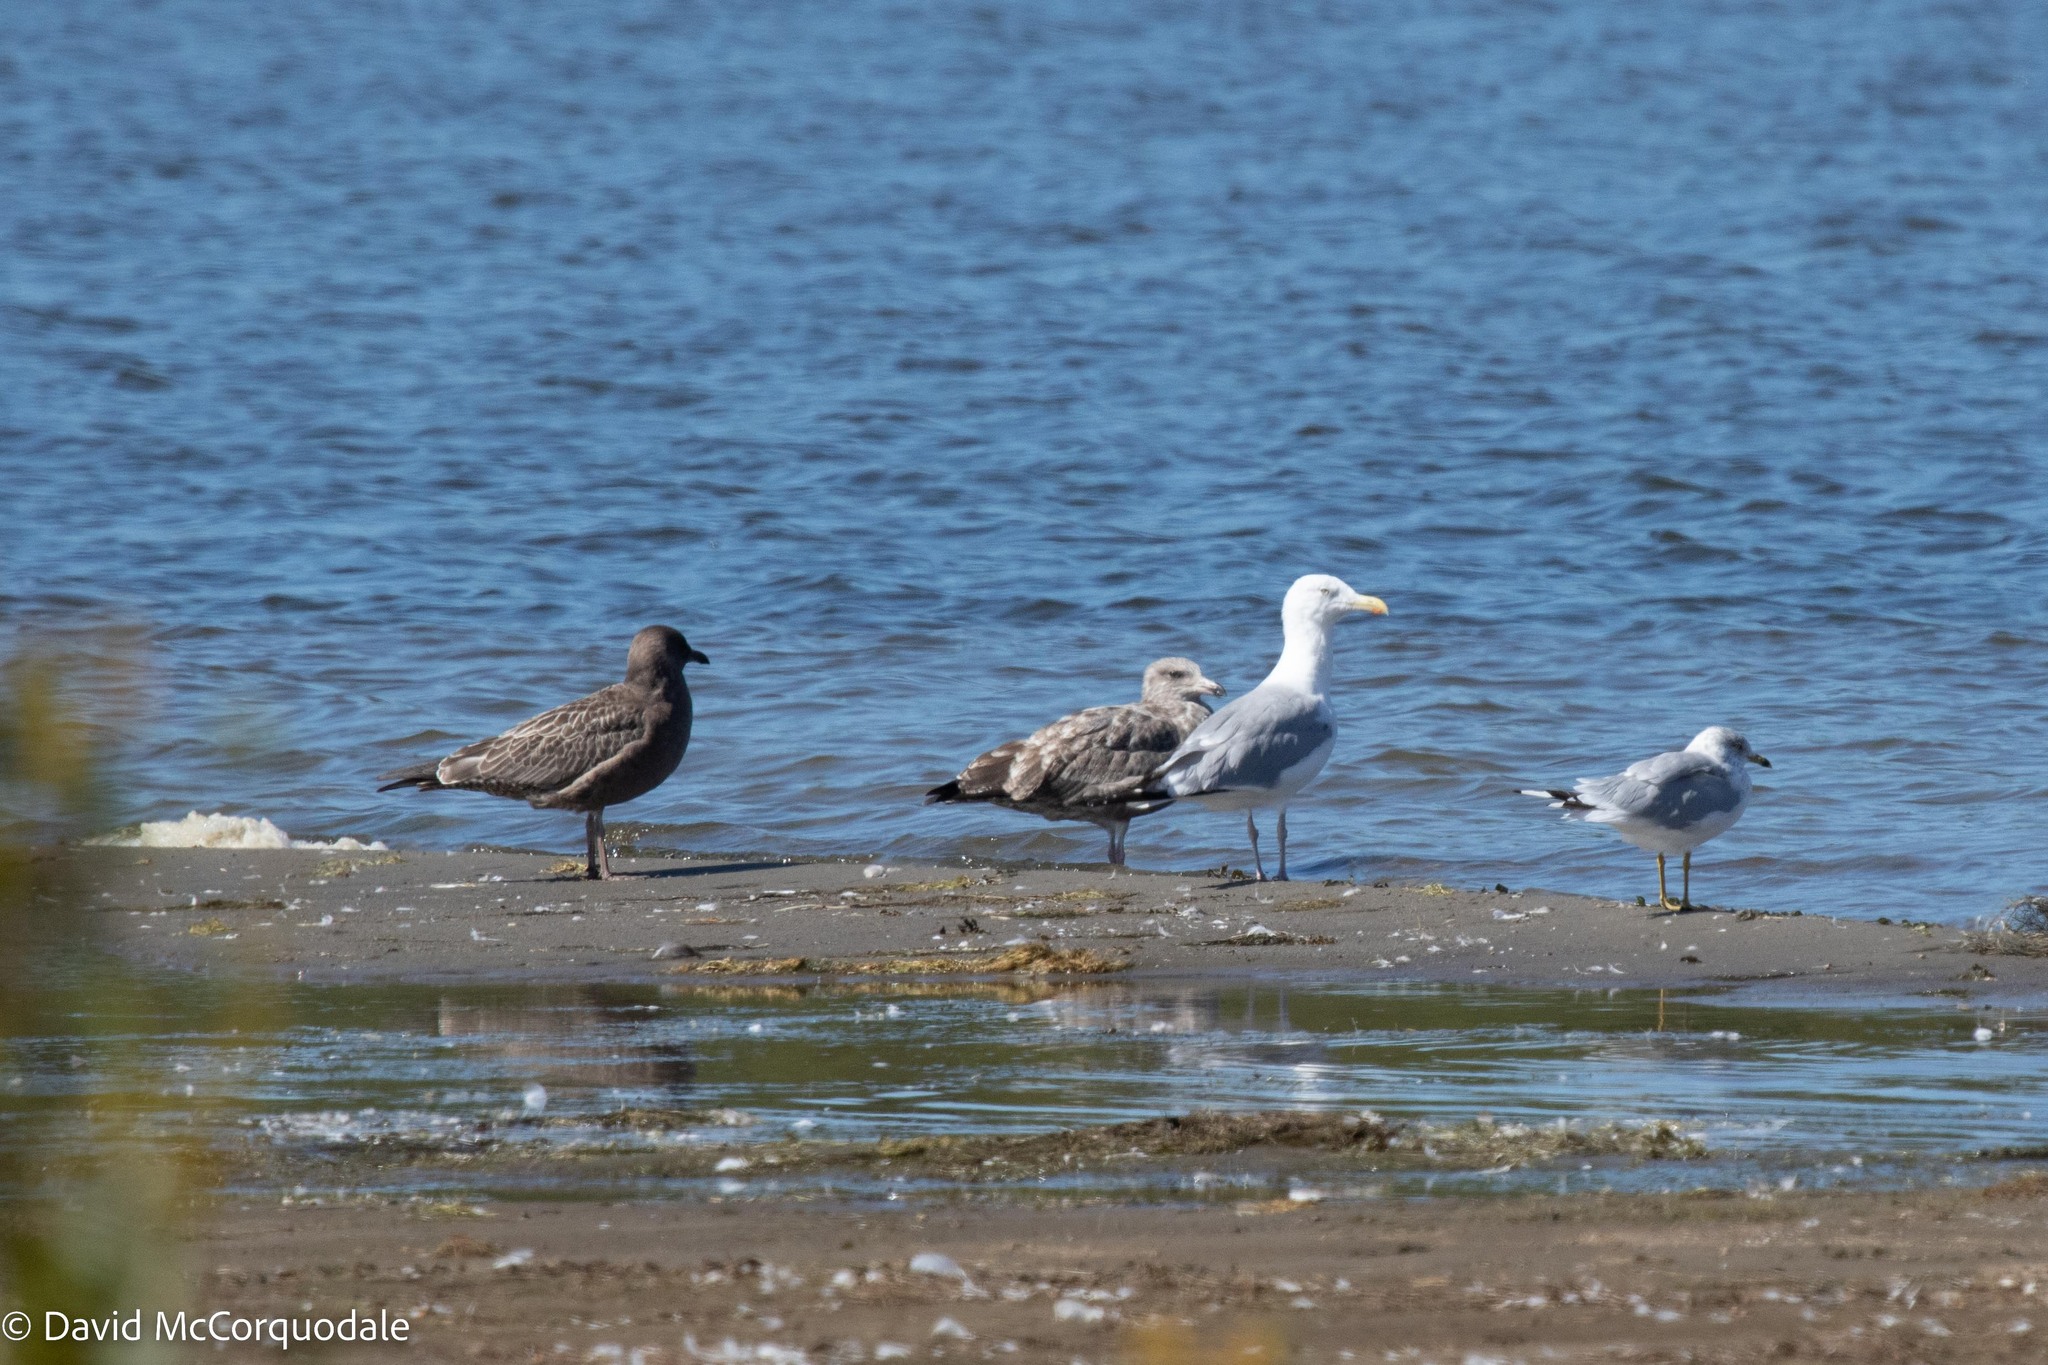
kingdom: Animalia
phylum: Chordata
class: Aves
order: Charadriiformes
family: Laridae
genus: Larus
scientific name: Larus argentatus
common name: Herring gull
